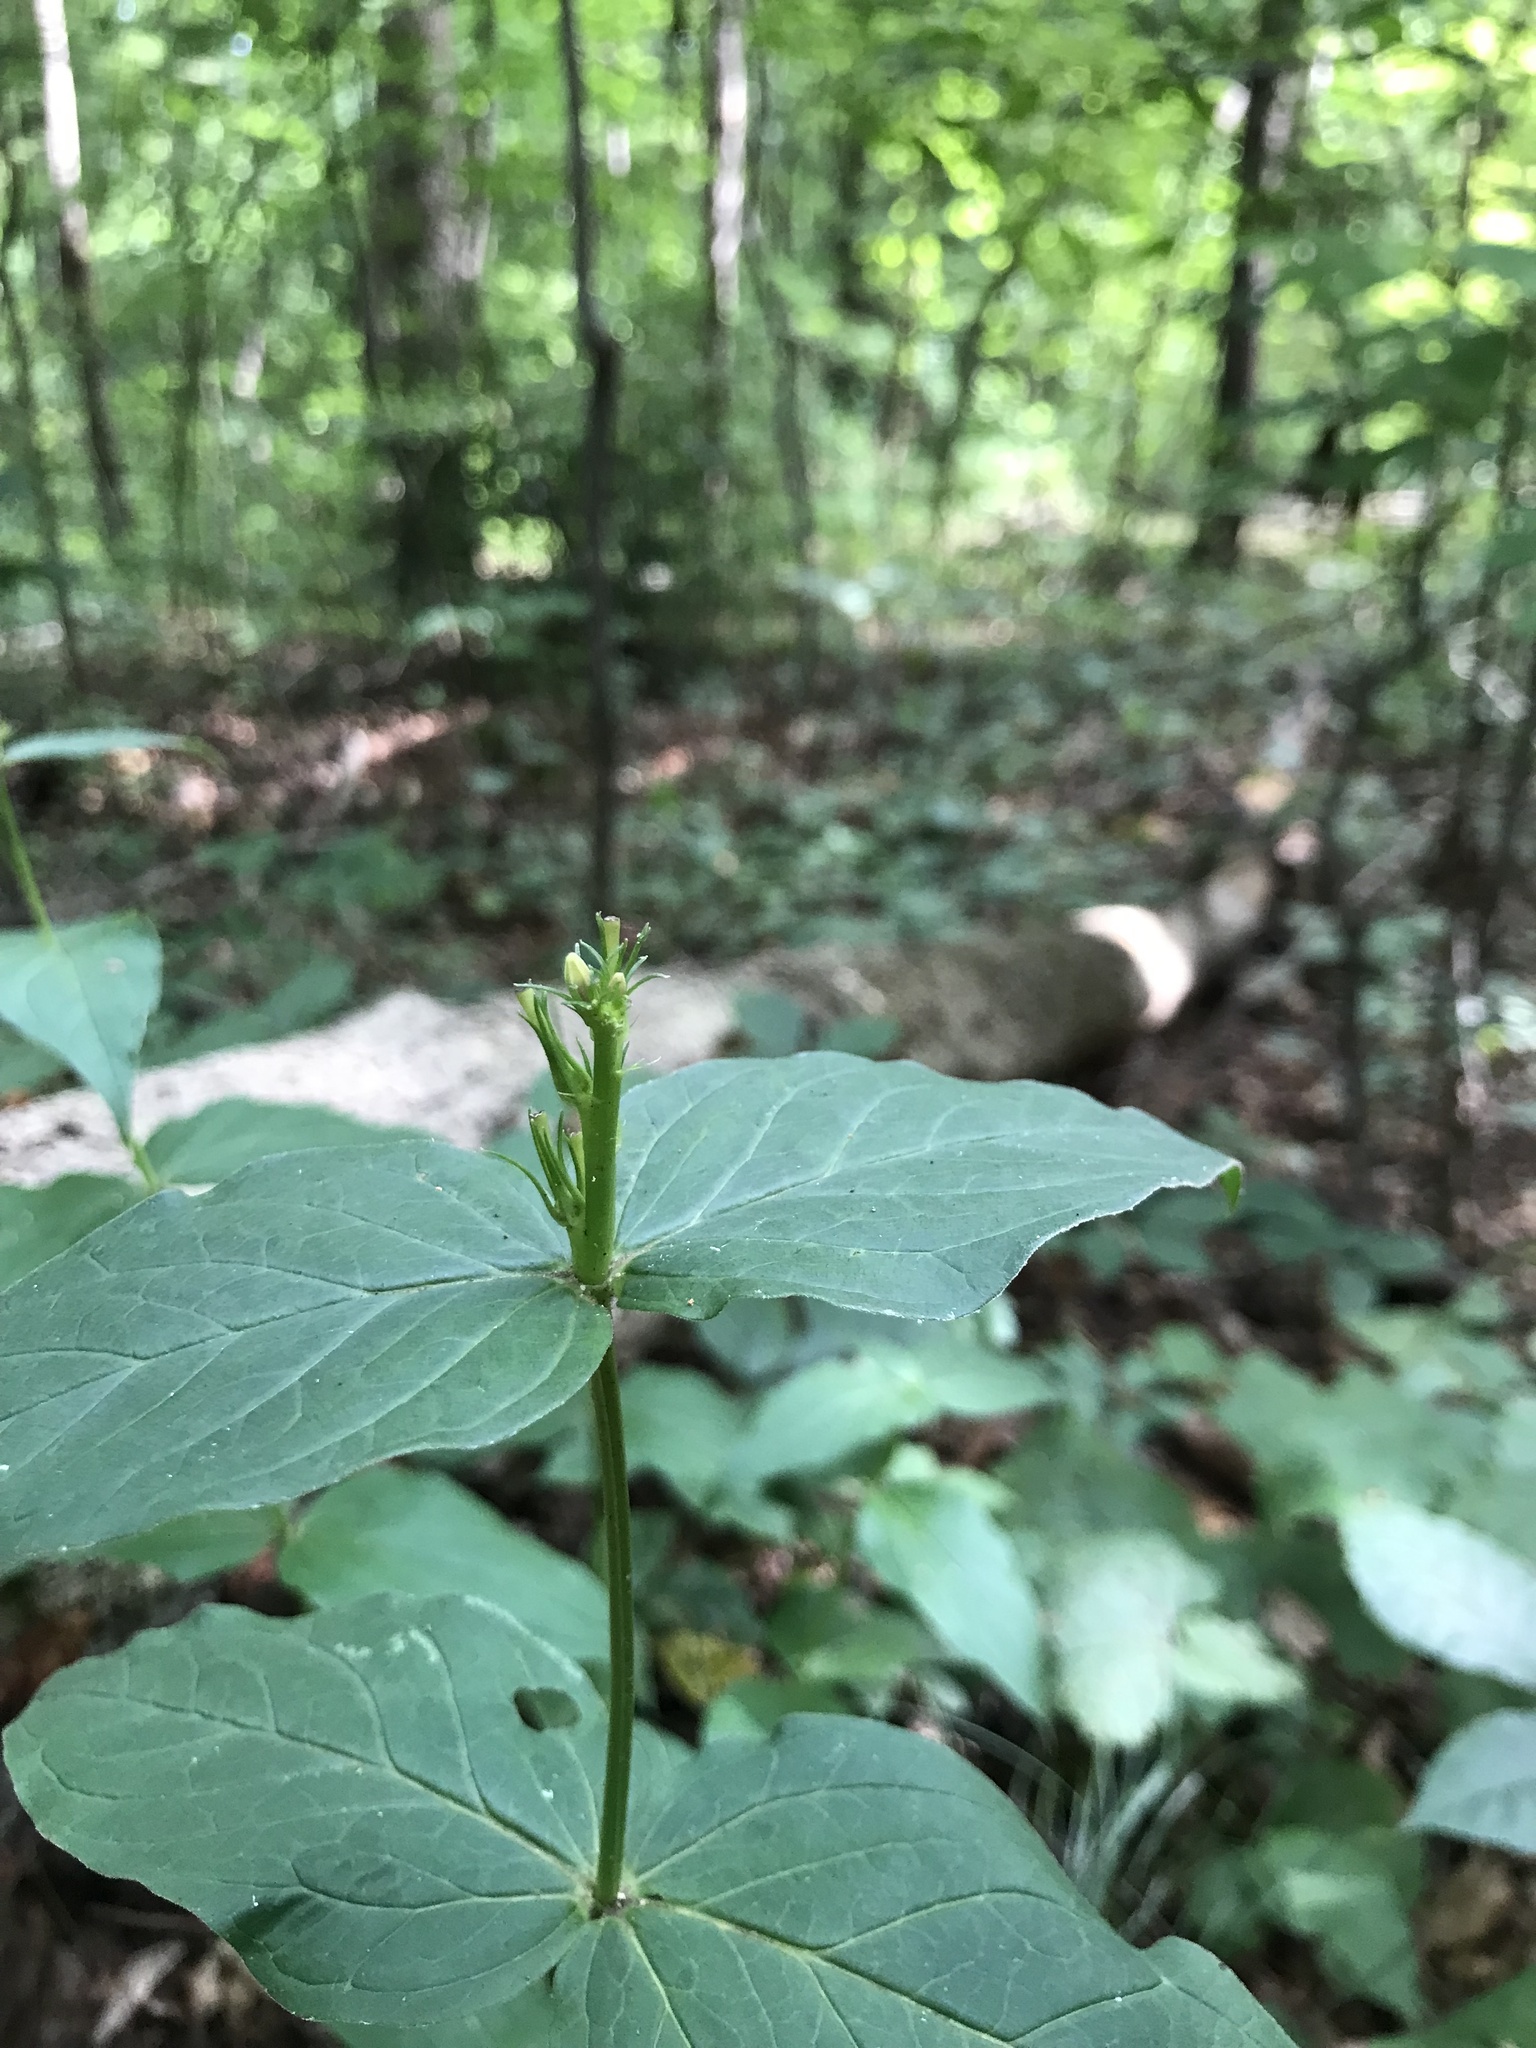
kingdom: Plantae
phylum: Tracheophyta
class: Magnoliopsida
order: Gentianales
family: Loganiaceae
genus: Spigelia
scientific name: Spigelia marilandica
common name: Indian-pink
